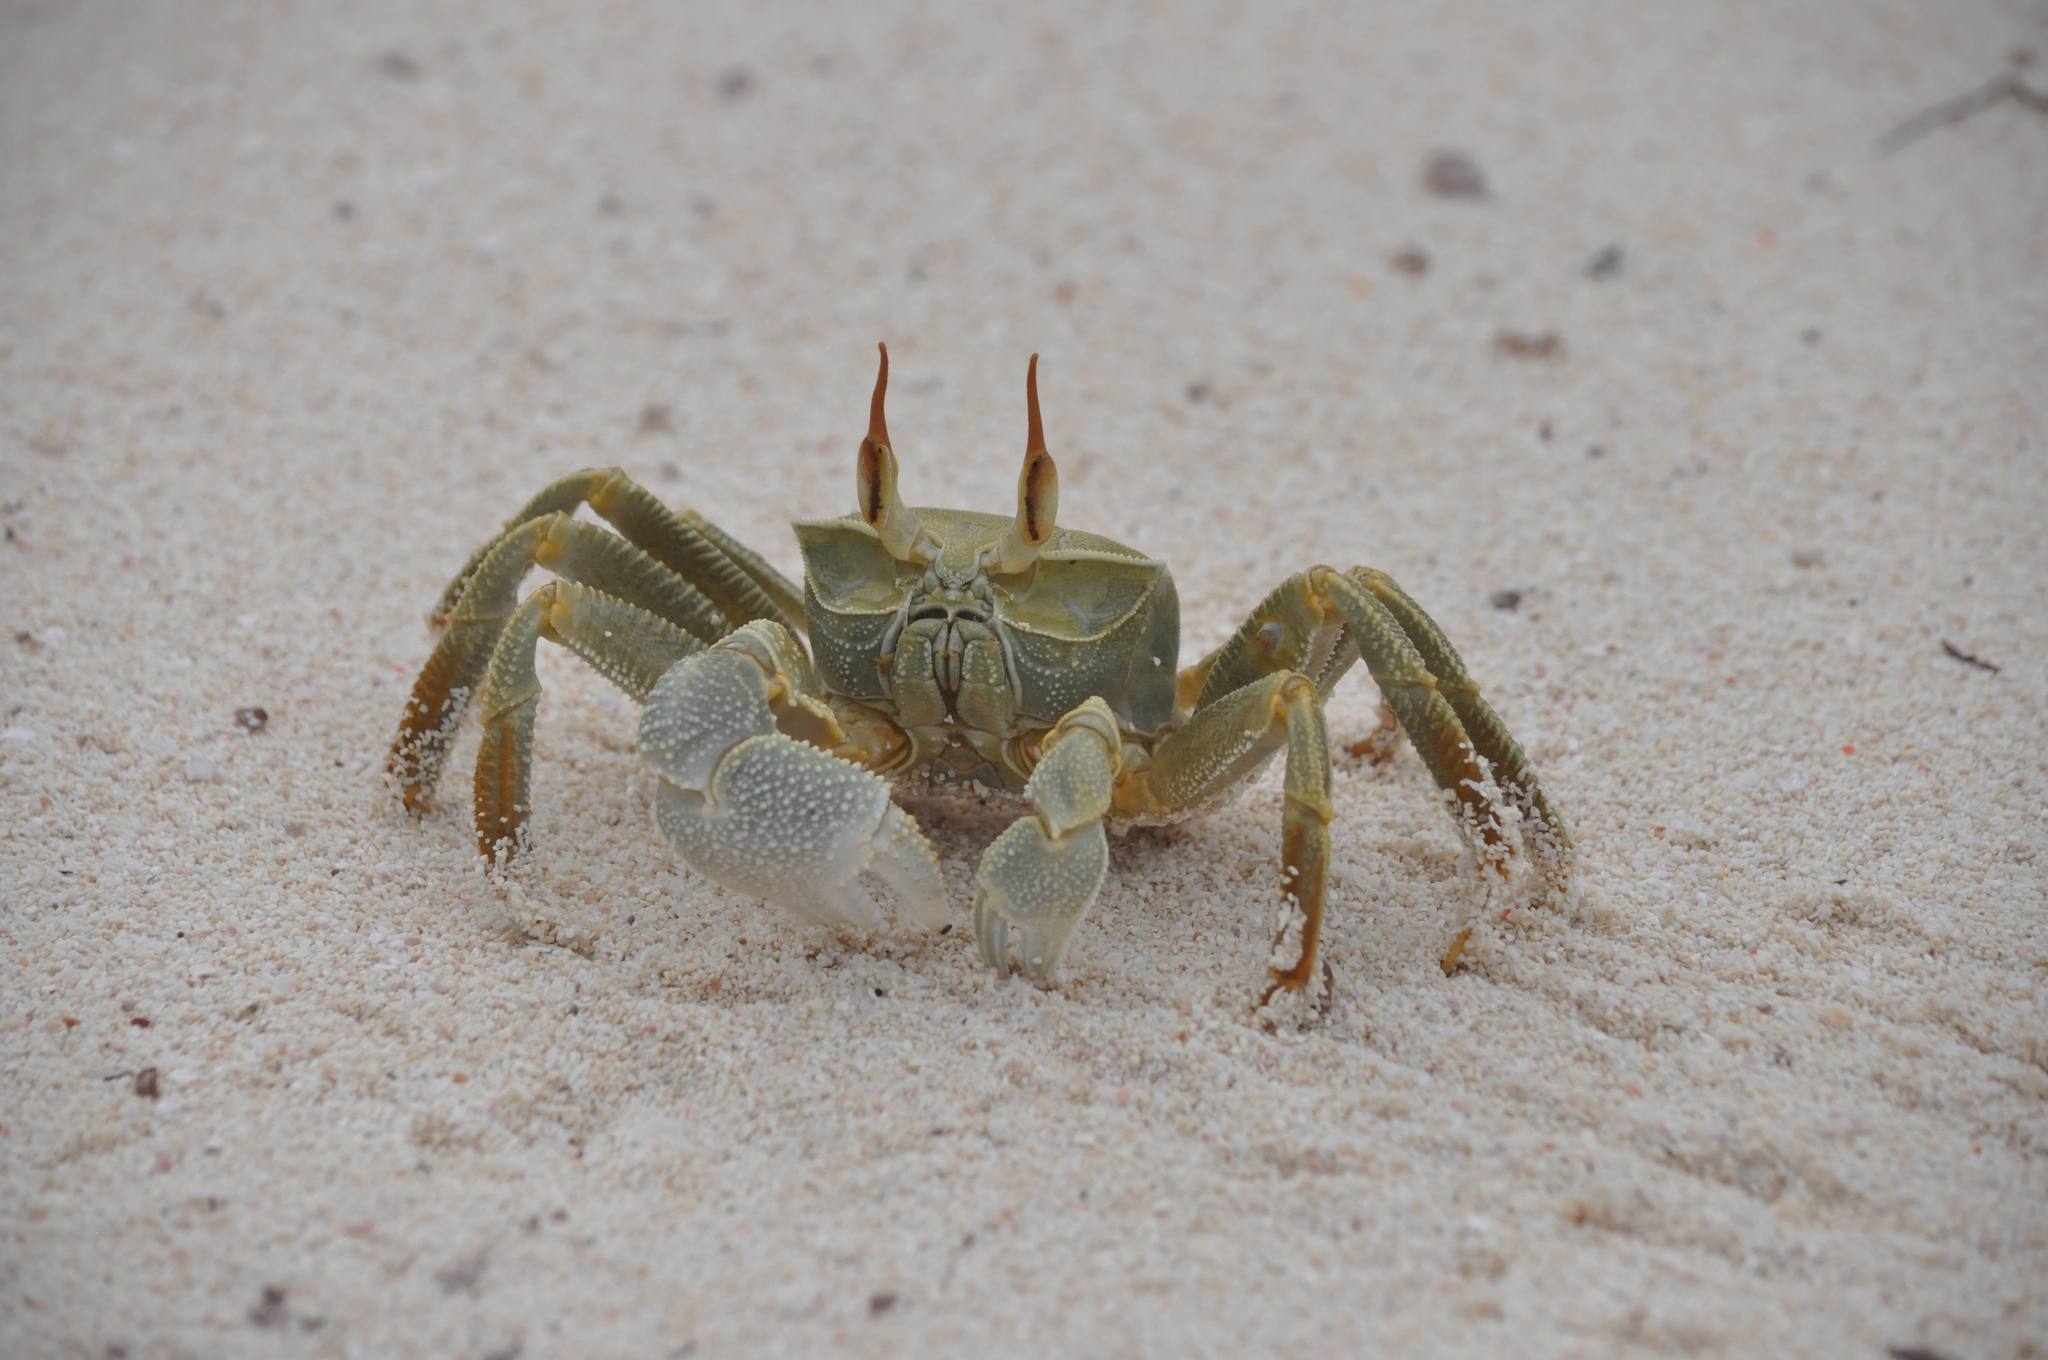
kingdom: Animalia
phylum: Arthropoda
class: Malacostraca
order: Decapoda
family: Ocypodidae
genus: Ocypode
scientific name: Ocypode ceratophthalmus
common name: Indo-pacific ghost crab
